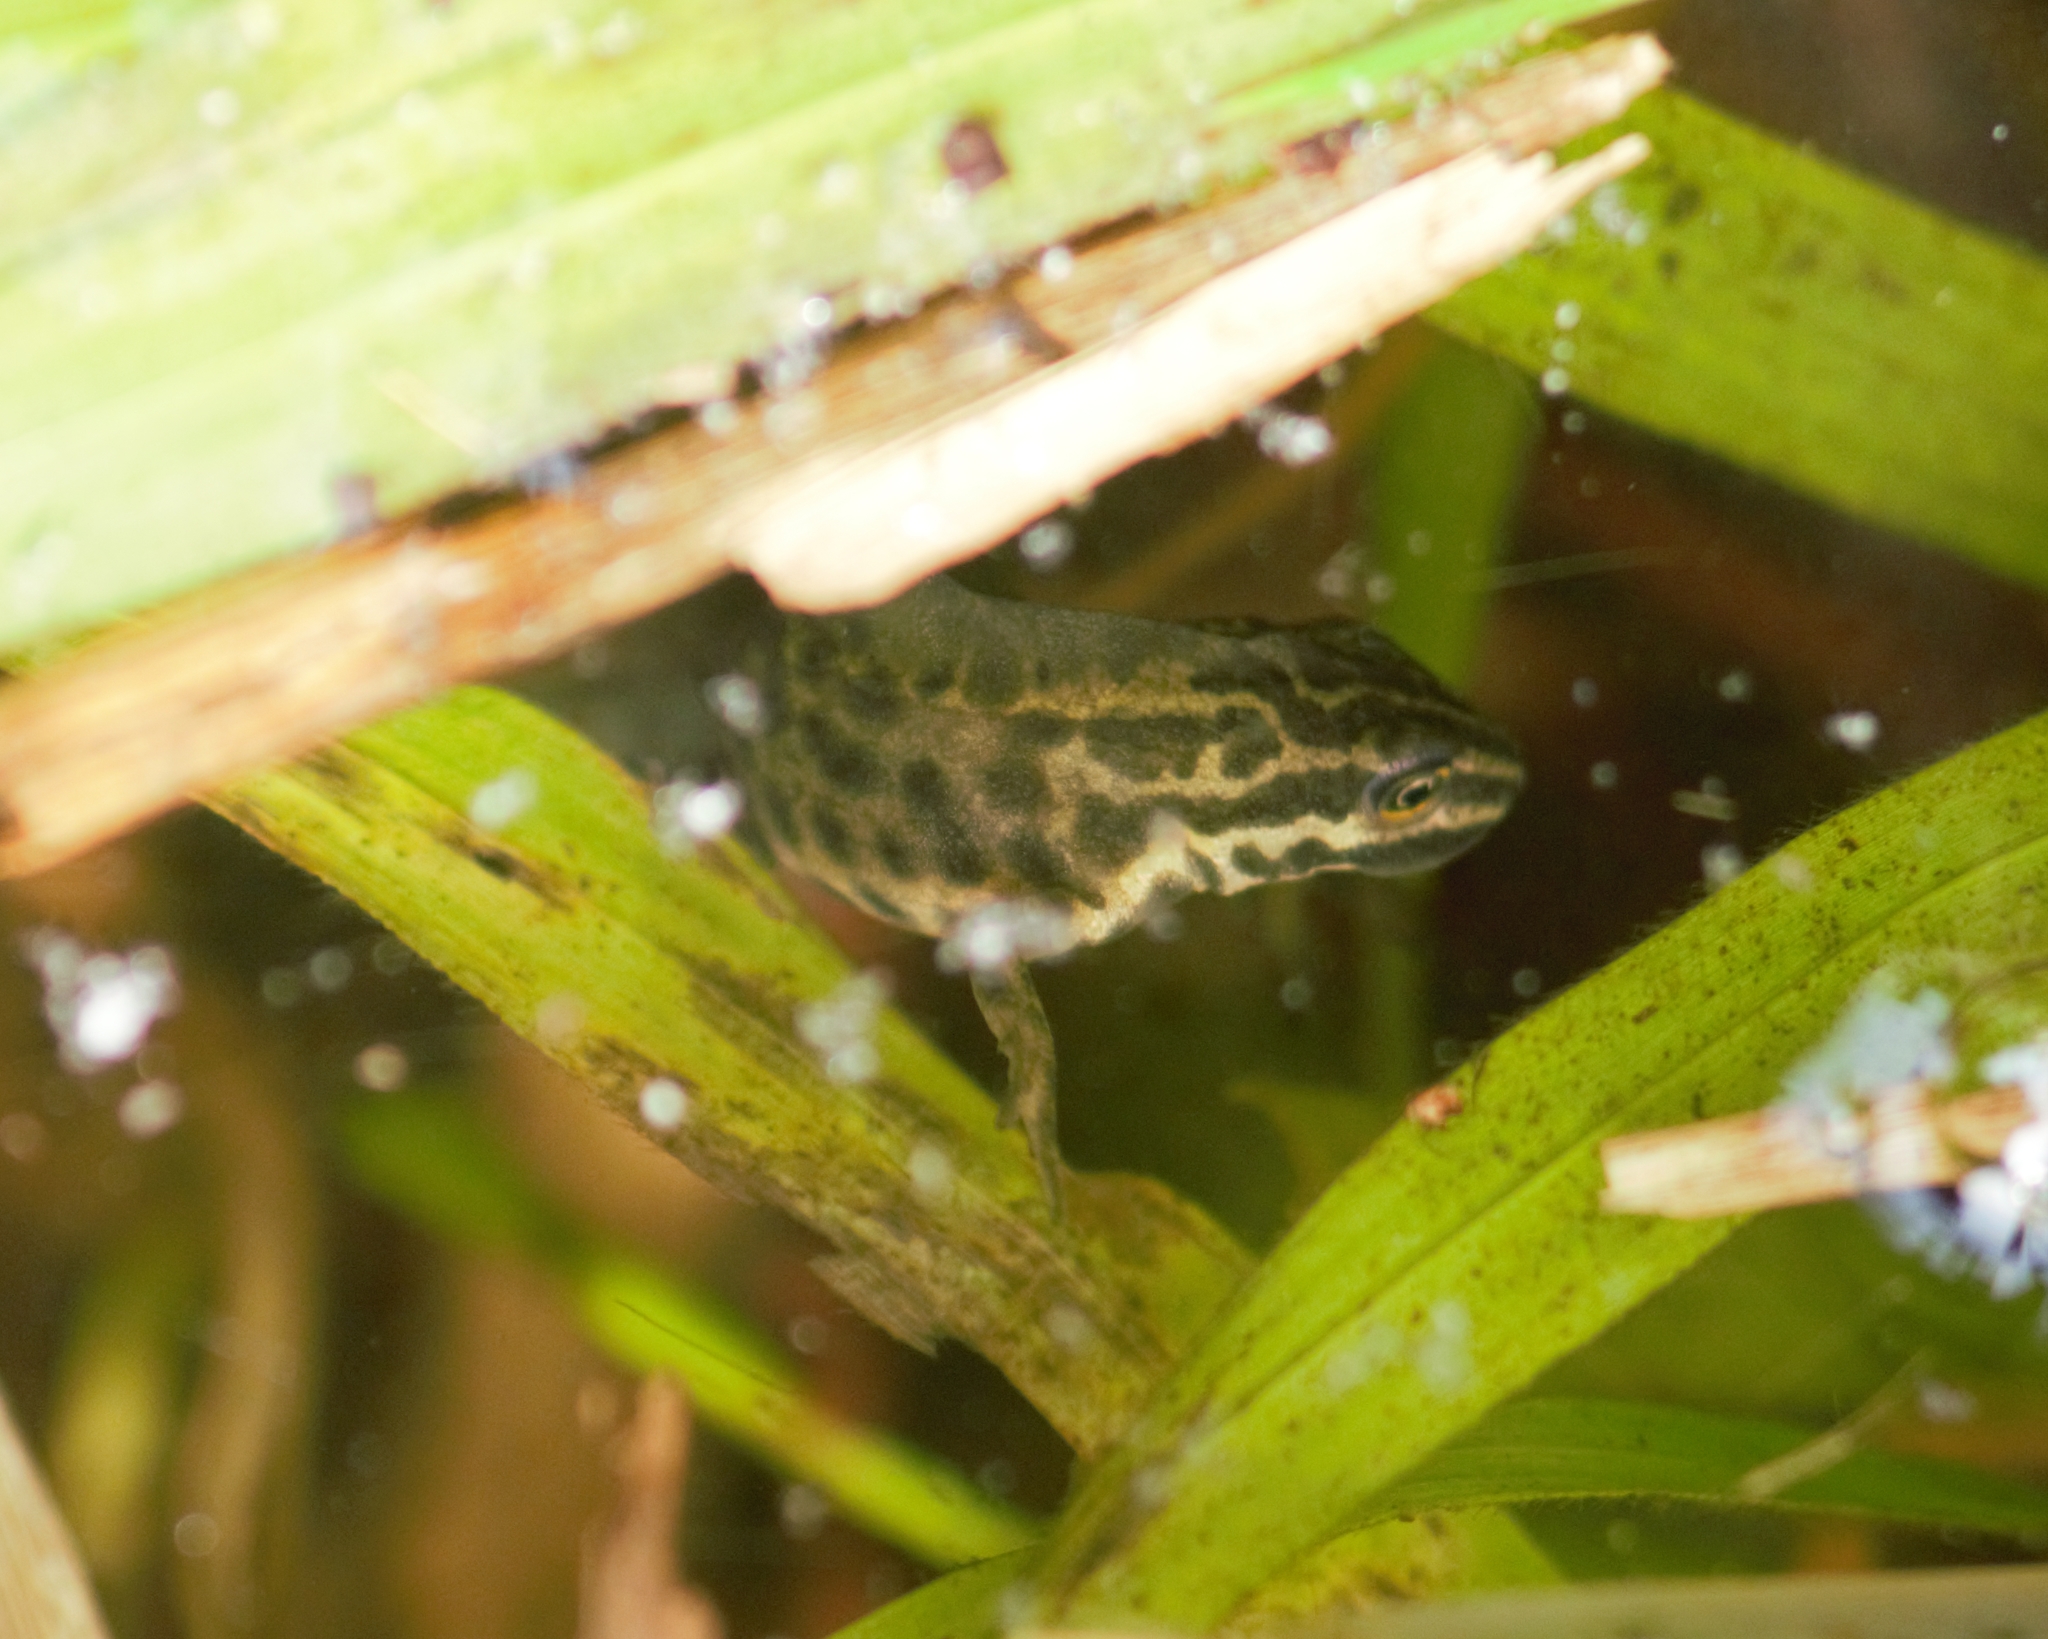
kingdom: Animalia
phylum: Chordata
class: Amphibia
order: Caudata
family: Salamandridae
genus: Lissotriton
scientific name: Lissotriton vulgaris
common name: Smooth newt
